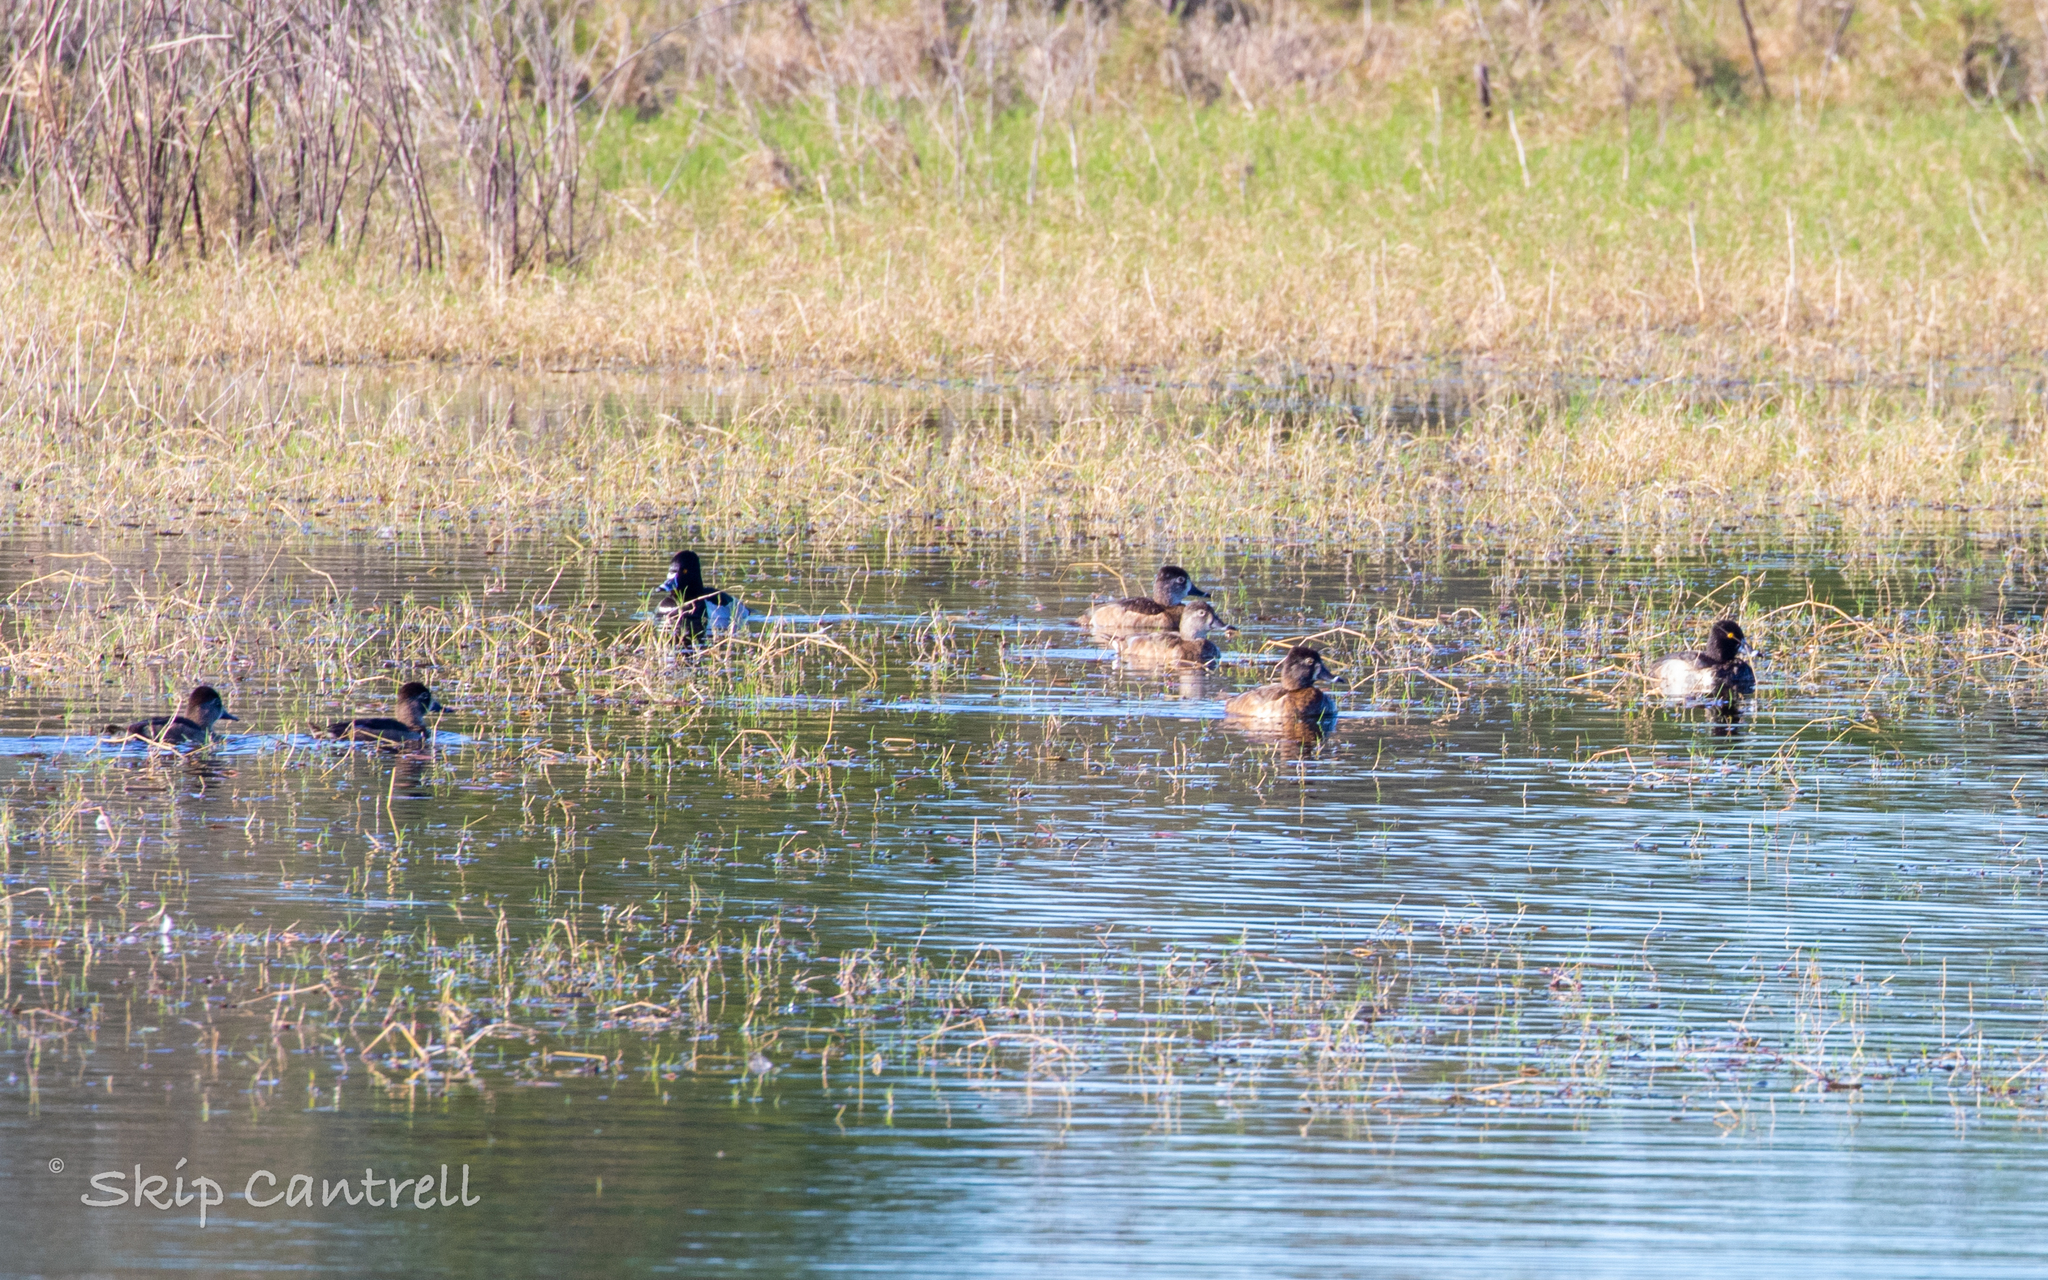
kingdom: Animalia
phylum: Chordata
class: Aves
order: Anseriformes
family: Anatidae
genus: Aythya
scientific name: Aythya collaris
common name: Ring-necked duck
